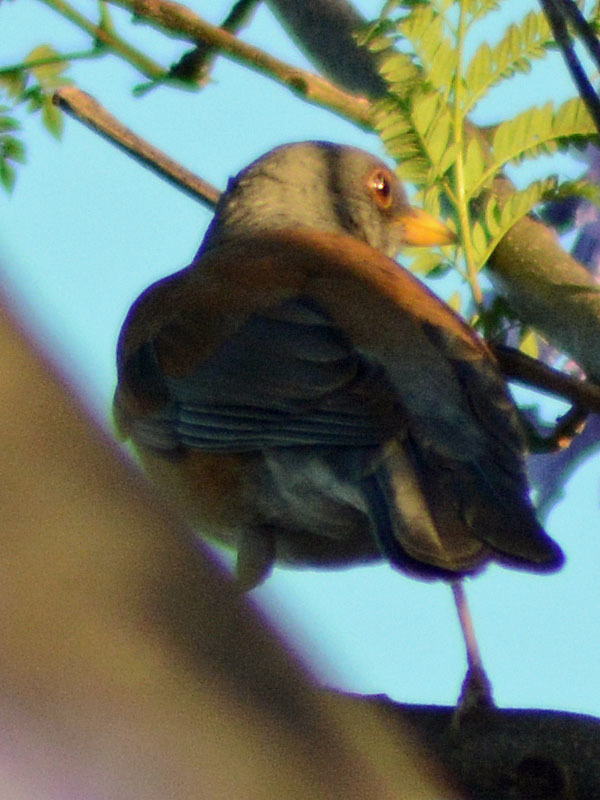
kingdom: Animalia
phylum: Chordata
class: Aves
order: Passeriformes
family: Turdidae
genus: Turdus
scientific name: Turdus rufopalliatus
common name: Rufous-backed robin
